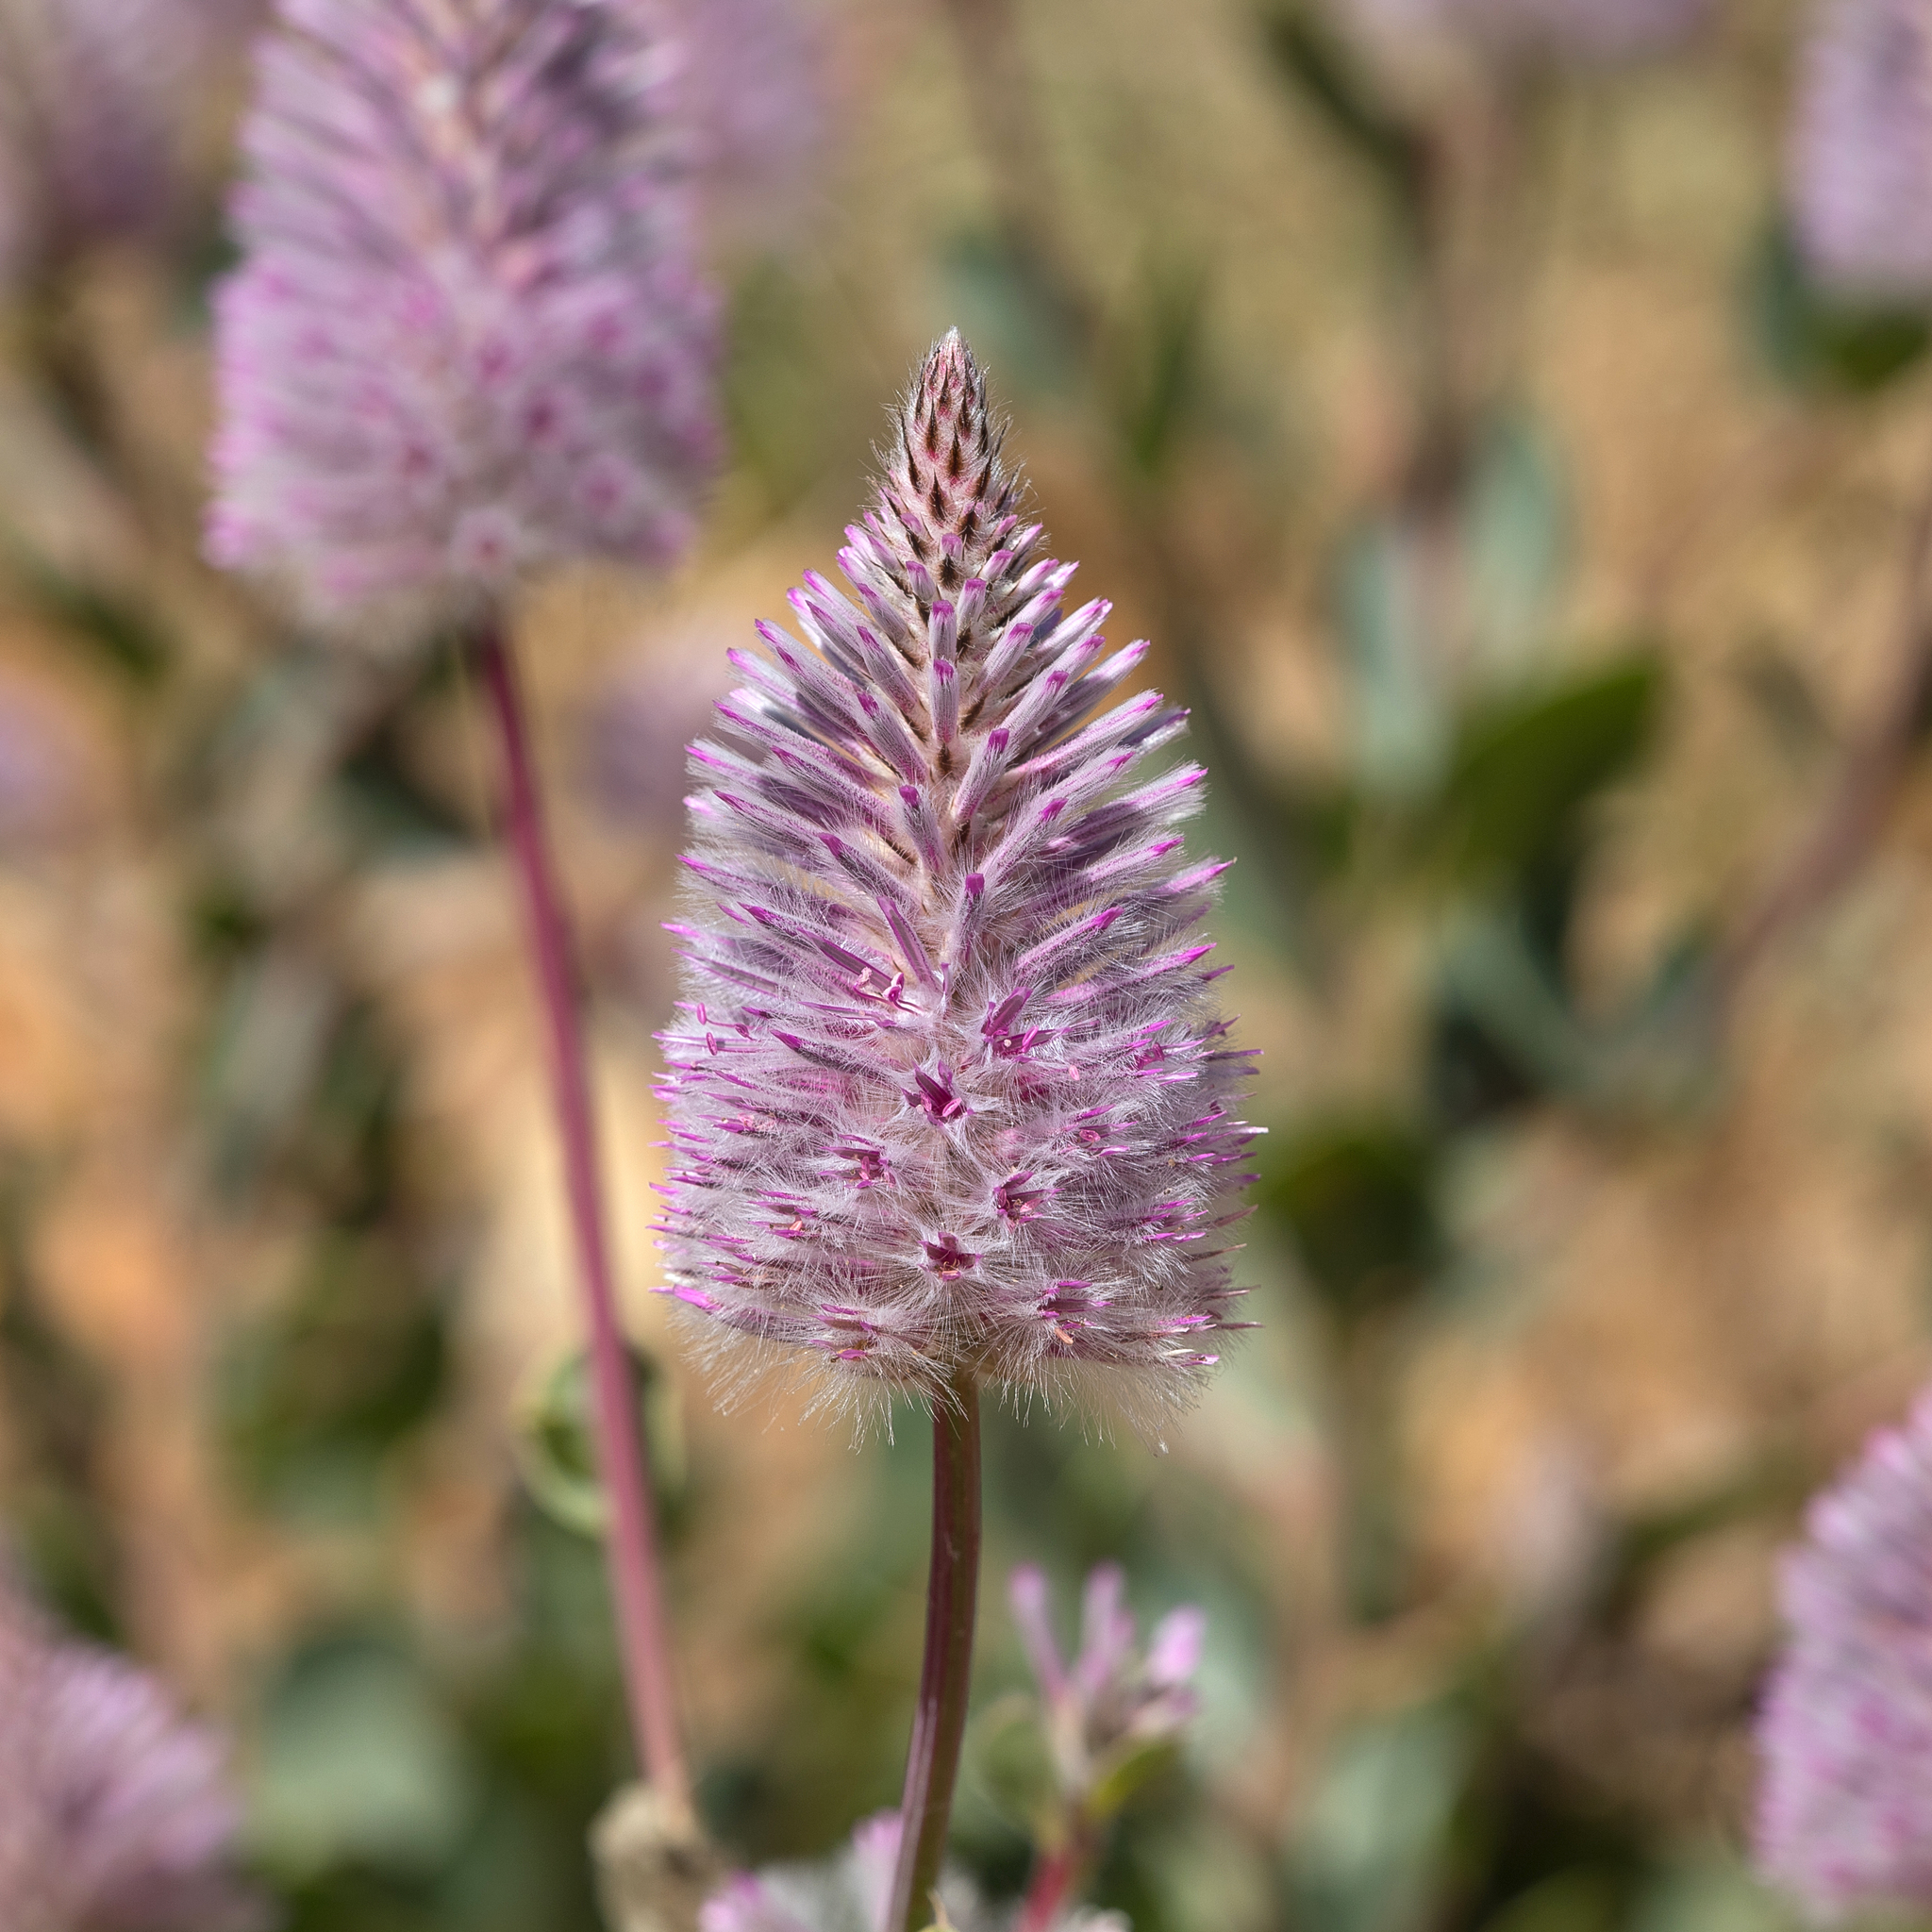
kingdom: Plantae
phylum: Tracheophyta
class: Magnoliopsida
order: Caryophyllales
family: Amaranthaceae
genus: Ptilotus
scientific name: Ptilotus exaltatus
